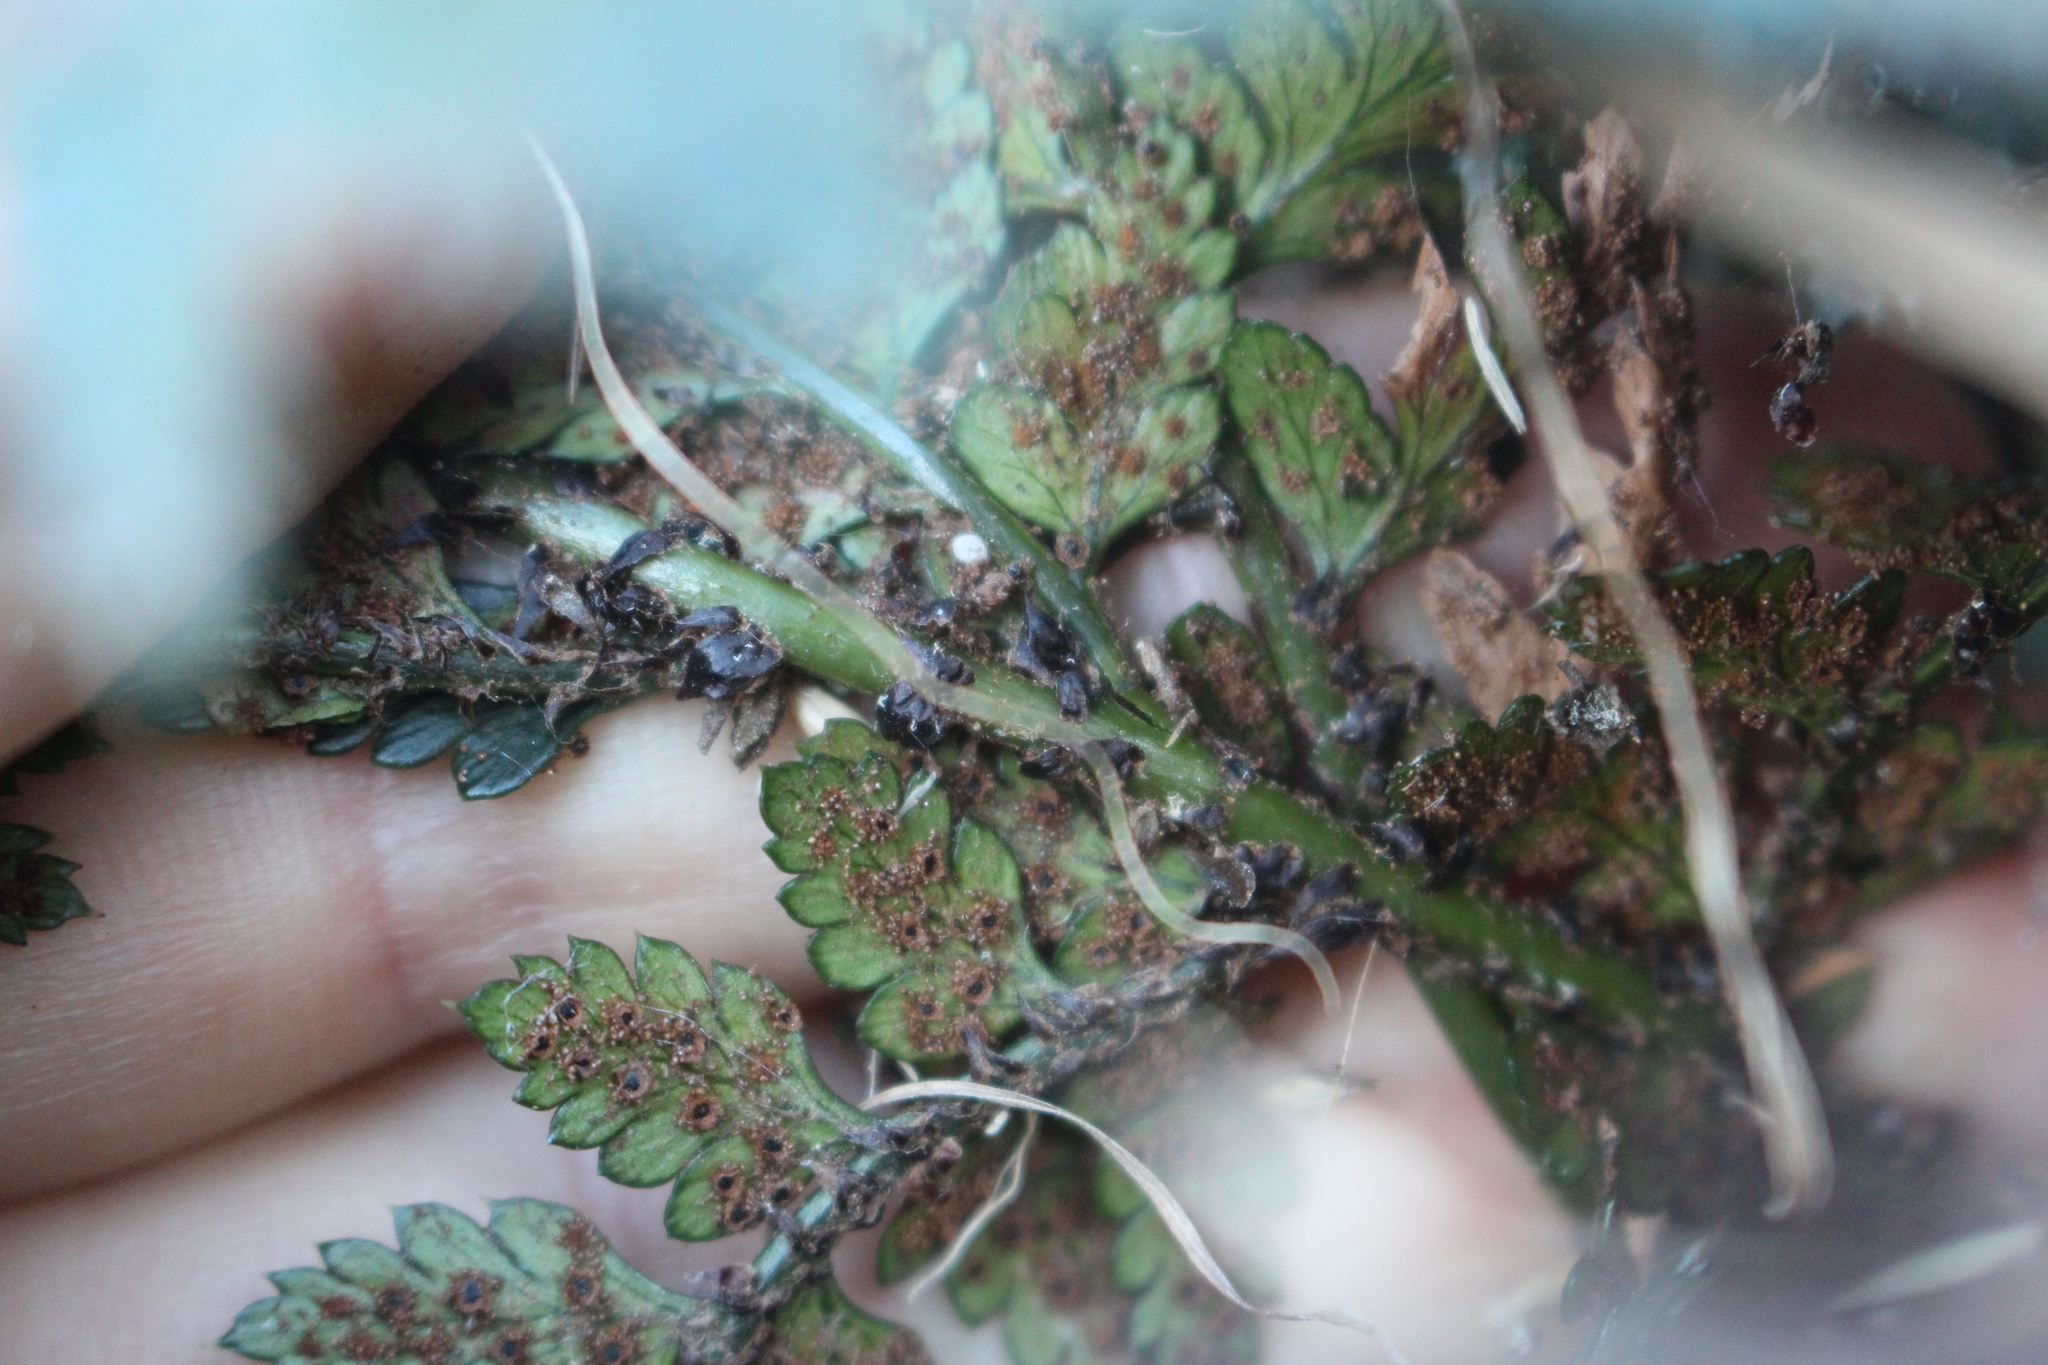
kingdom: Plantae
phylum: Tracheophyta
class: Polypodiopsida
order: Polypodiales
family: Dryopteridaceae
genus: Polystichum
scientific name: Polystichum oculatum
